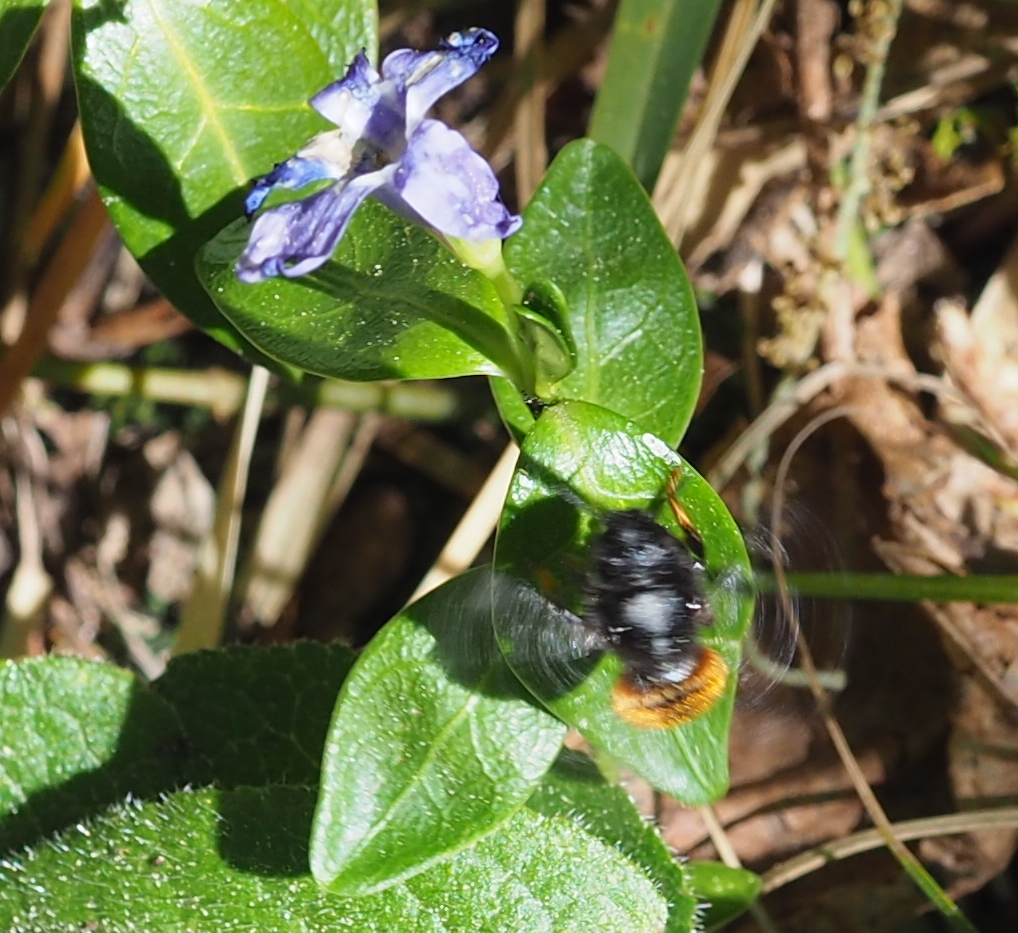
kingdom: Animalia
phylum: Arthropoda
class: Insecta
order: Hymenoptera
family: Megachilidae
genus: Osmia
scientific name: Osmia bicolor
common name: Red-tailed mason bee
